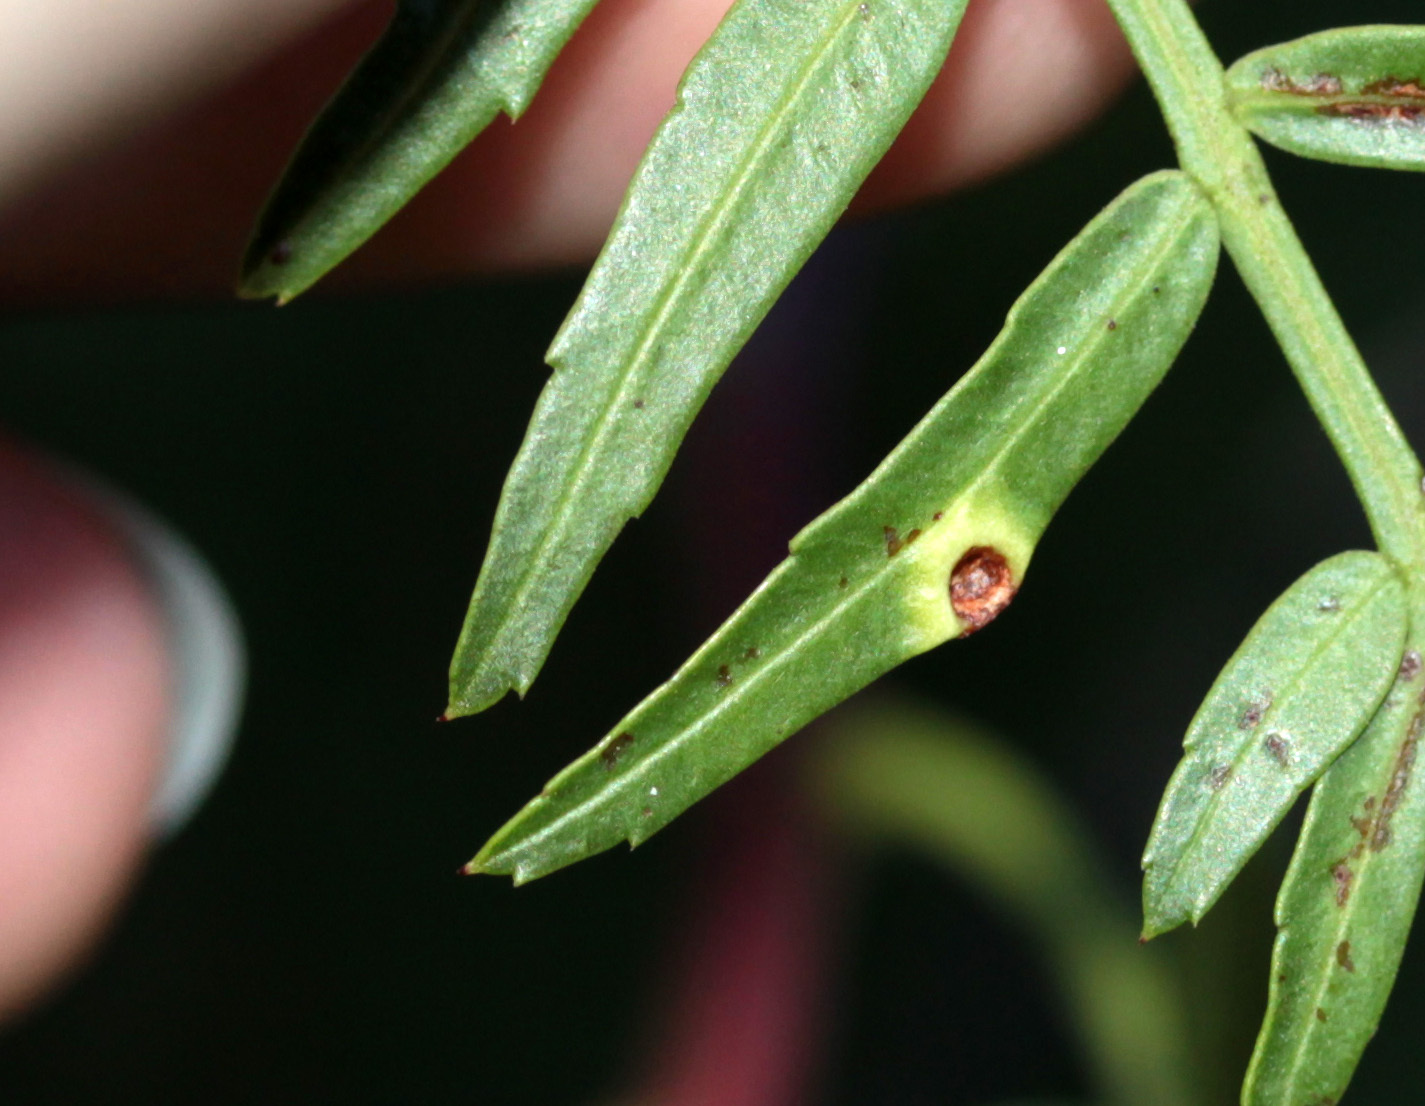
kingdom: Animalia
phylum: Arthropoda
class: Insecta
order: Hemiptera
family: Calophyidae
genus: Calophya
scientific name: Calophya schini
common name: Pepper tree psyllid
